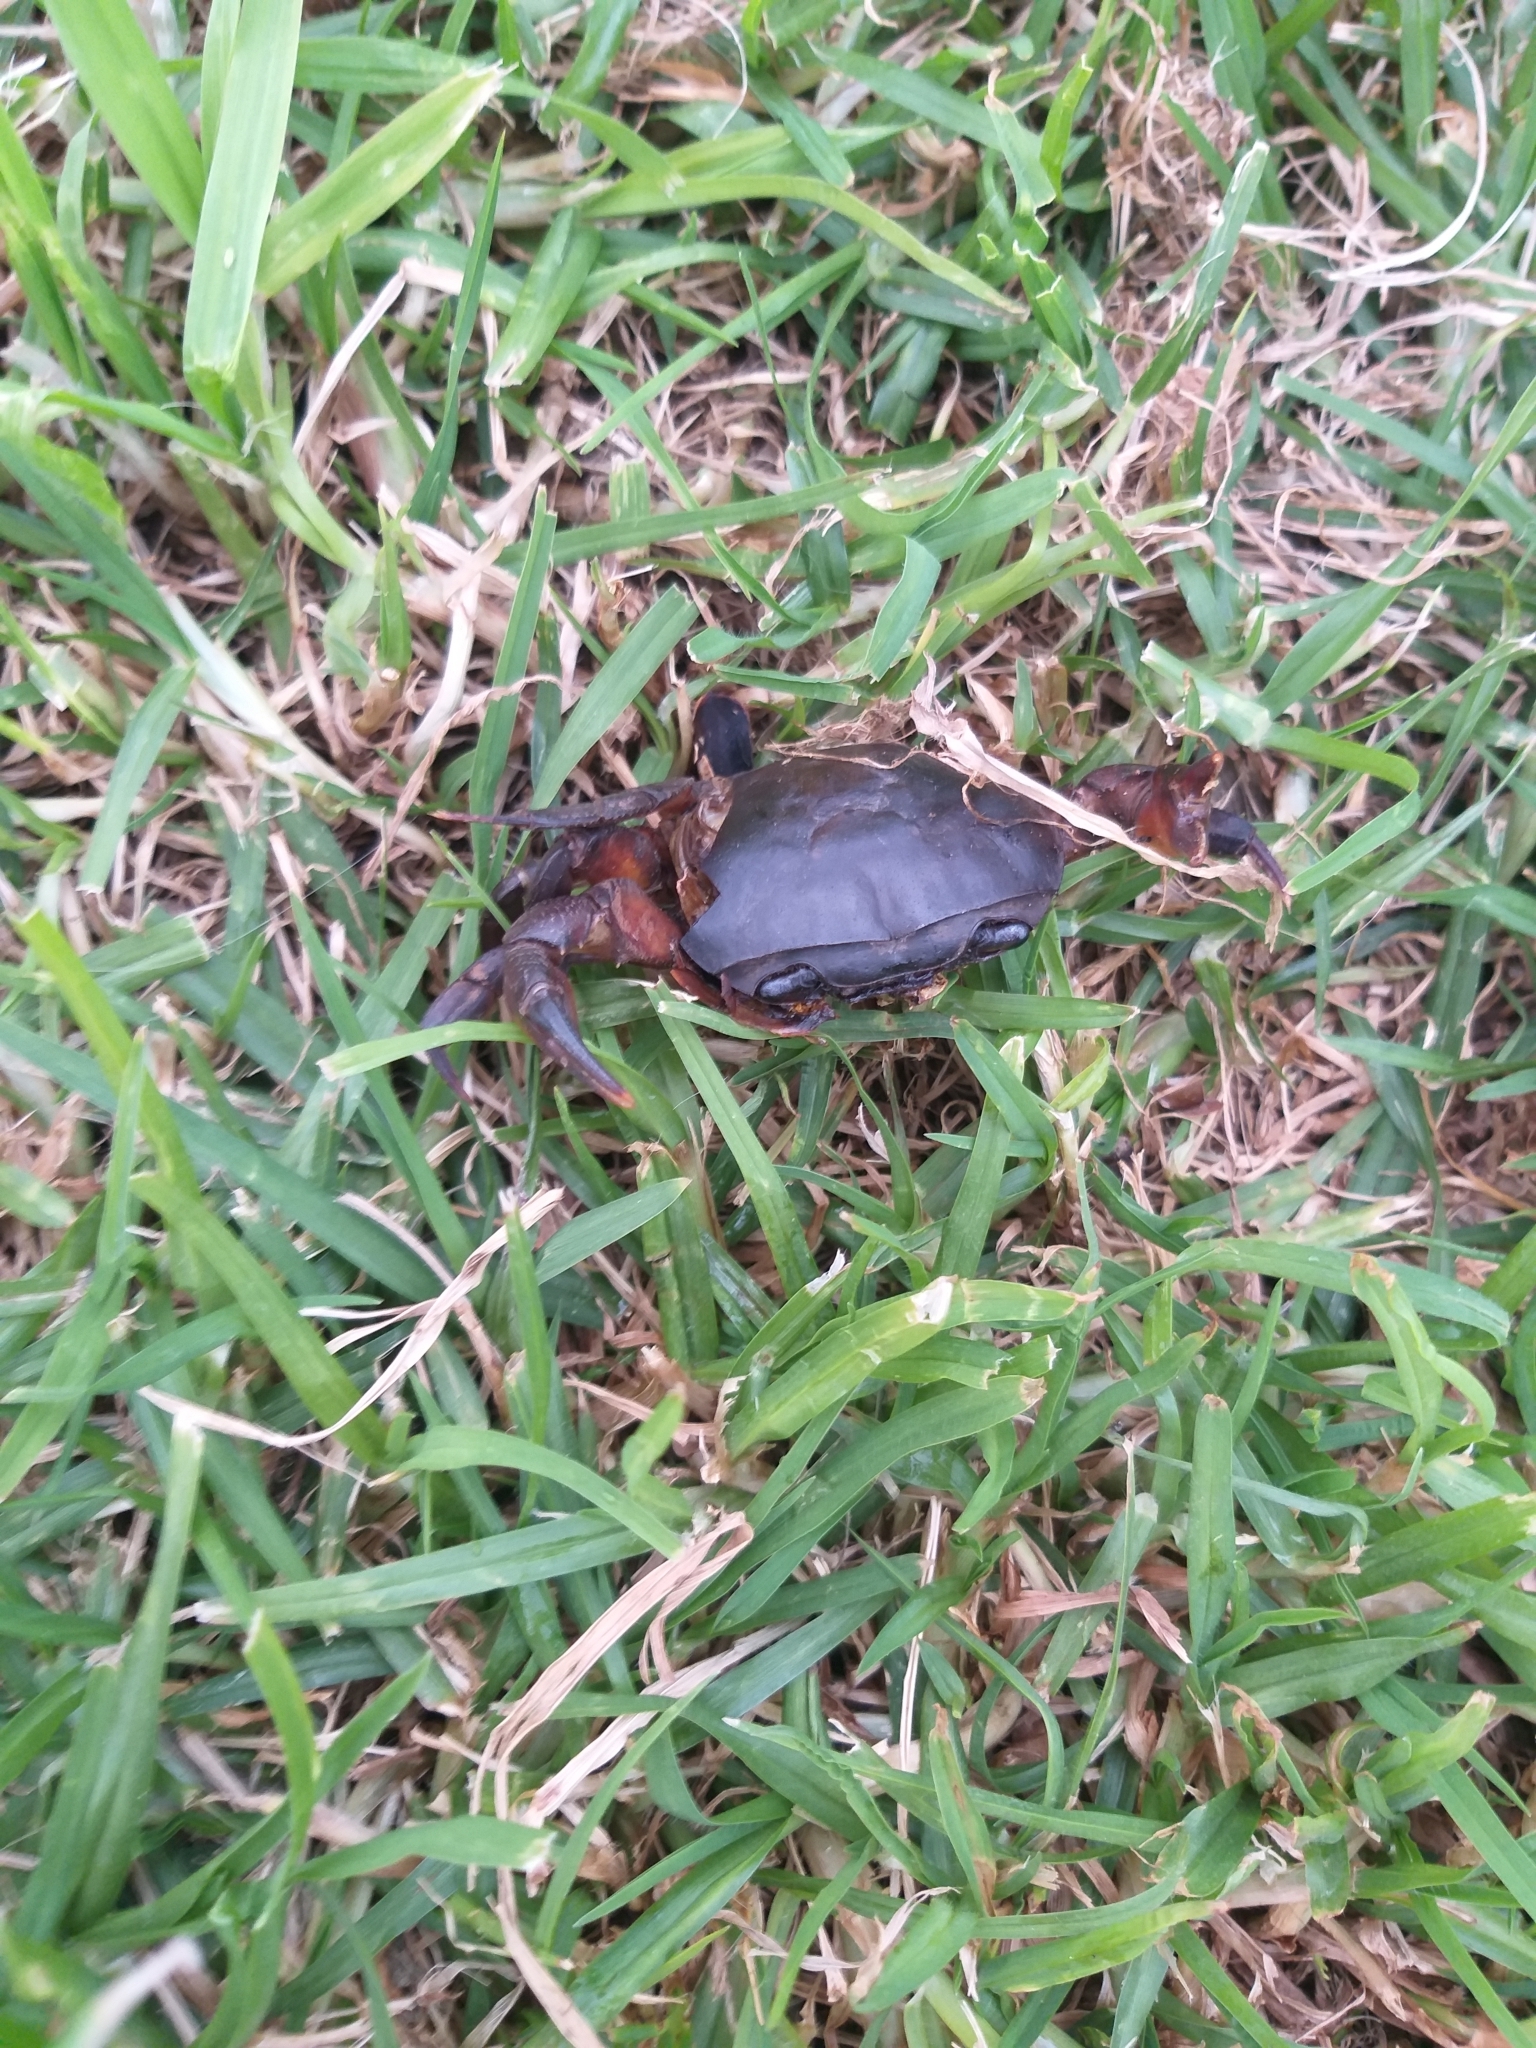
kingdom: Animalia
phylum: Arthropoda
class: Malacostraca
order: Decapoda
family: Potamonautidae
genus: Potamonautes
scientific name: Potamonautes perlatus
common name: Cape river crab
